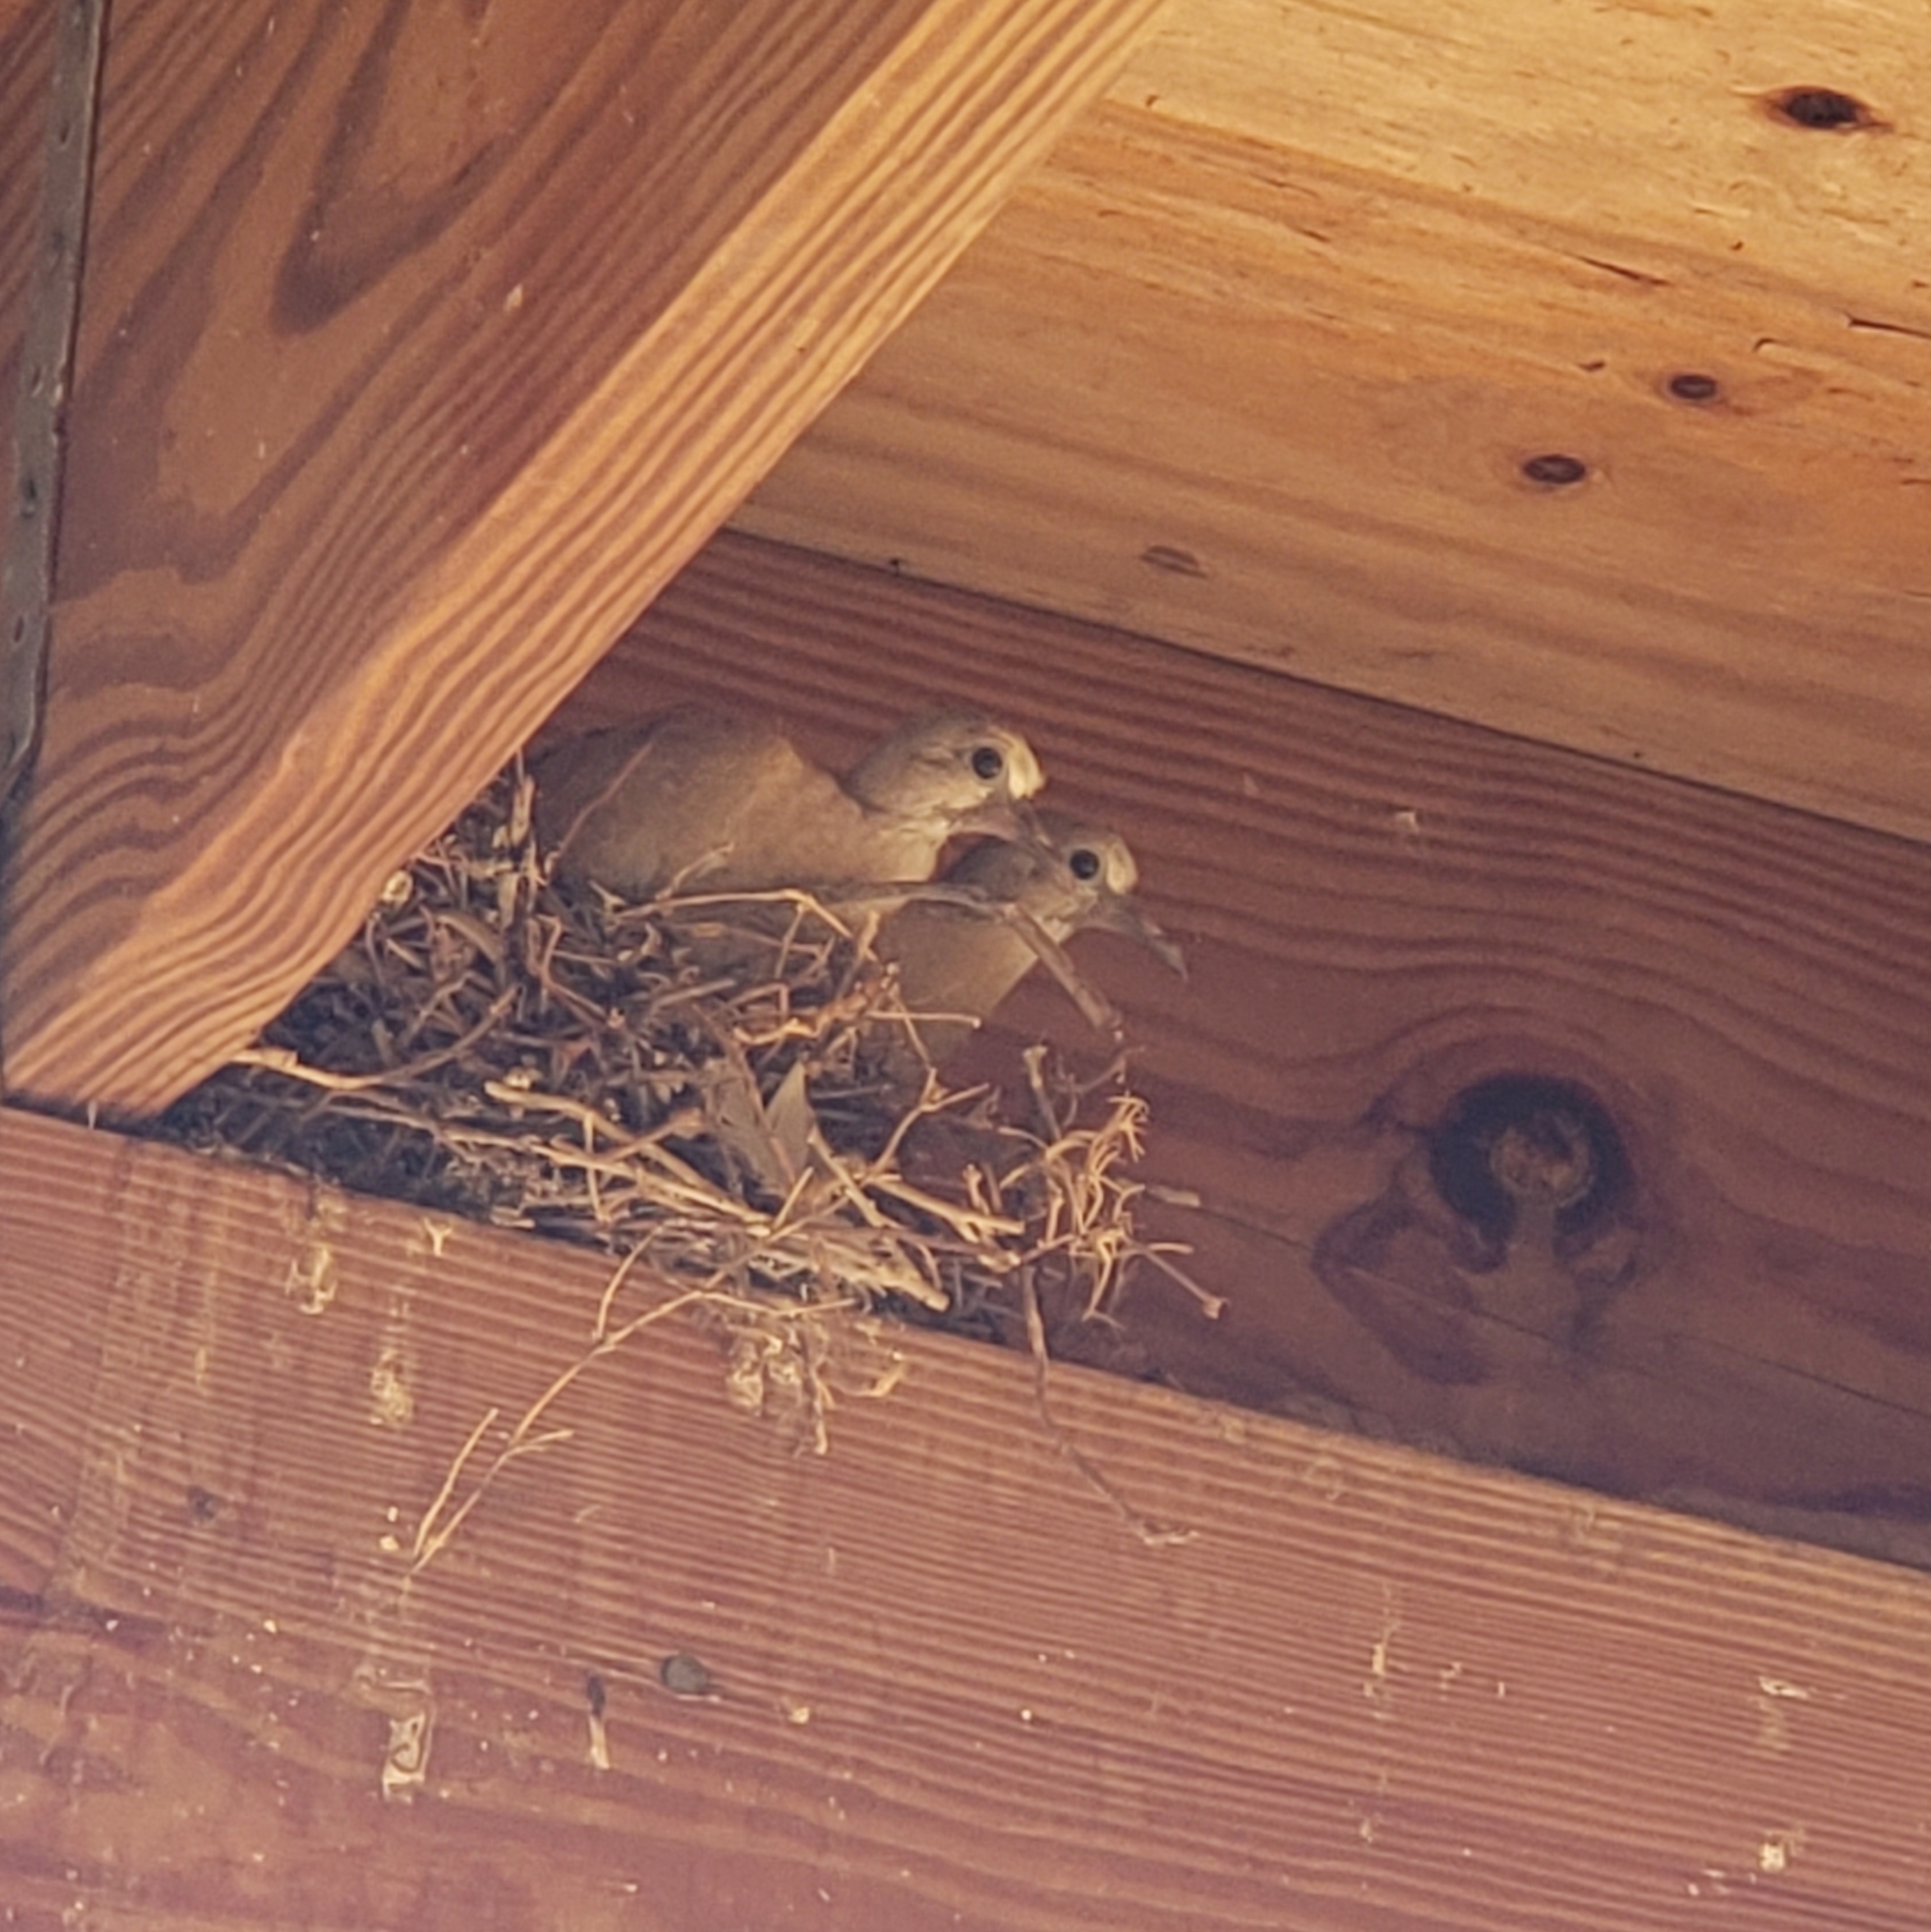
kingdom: Animalia
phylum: Chordata
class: Aves
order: Columbiformes
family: Columbidae
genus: Zenaida
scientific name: Zenaida macroura
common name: Mourning dove
